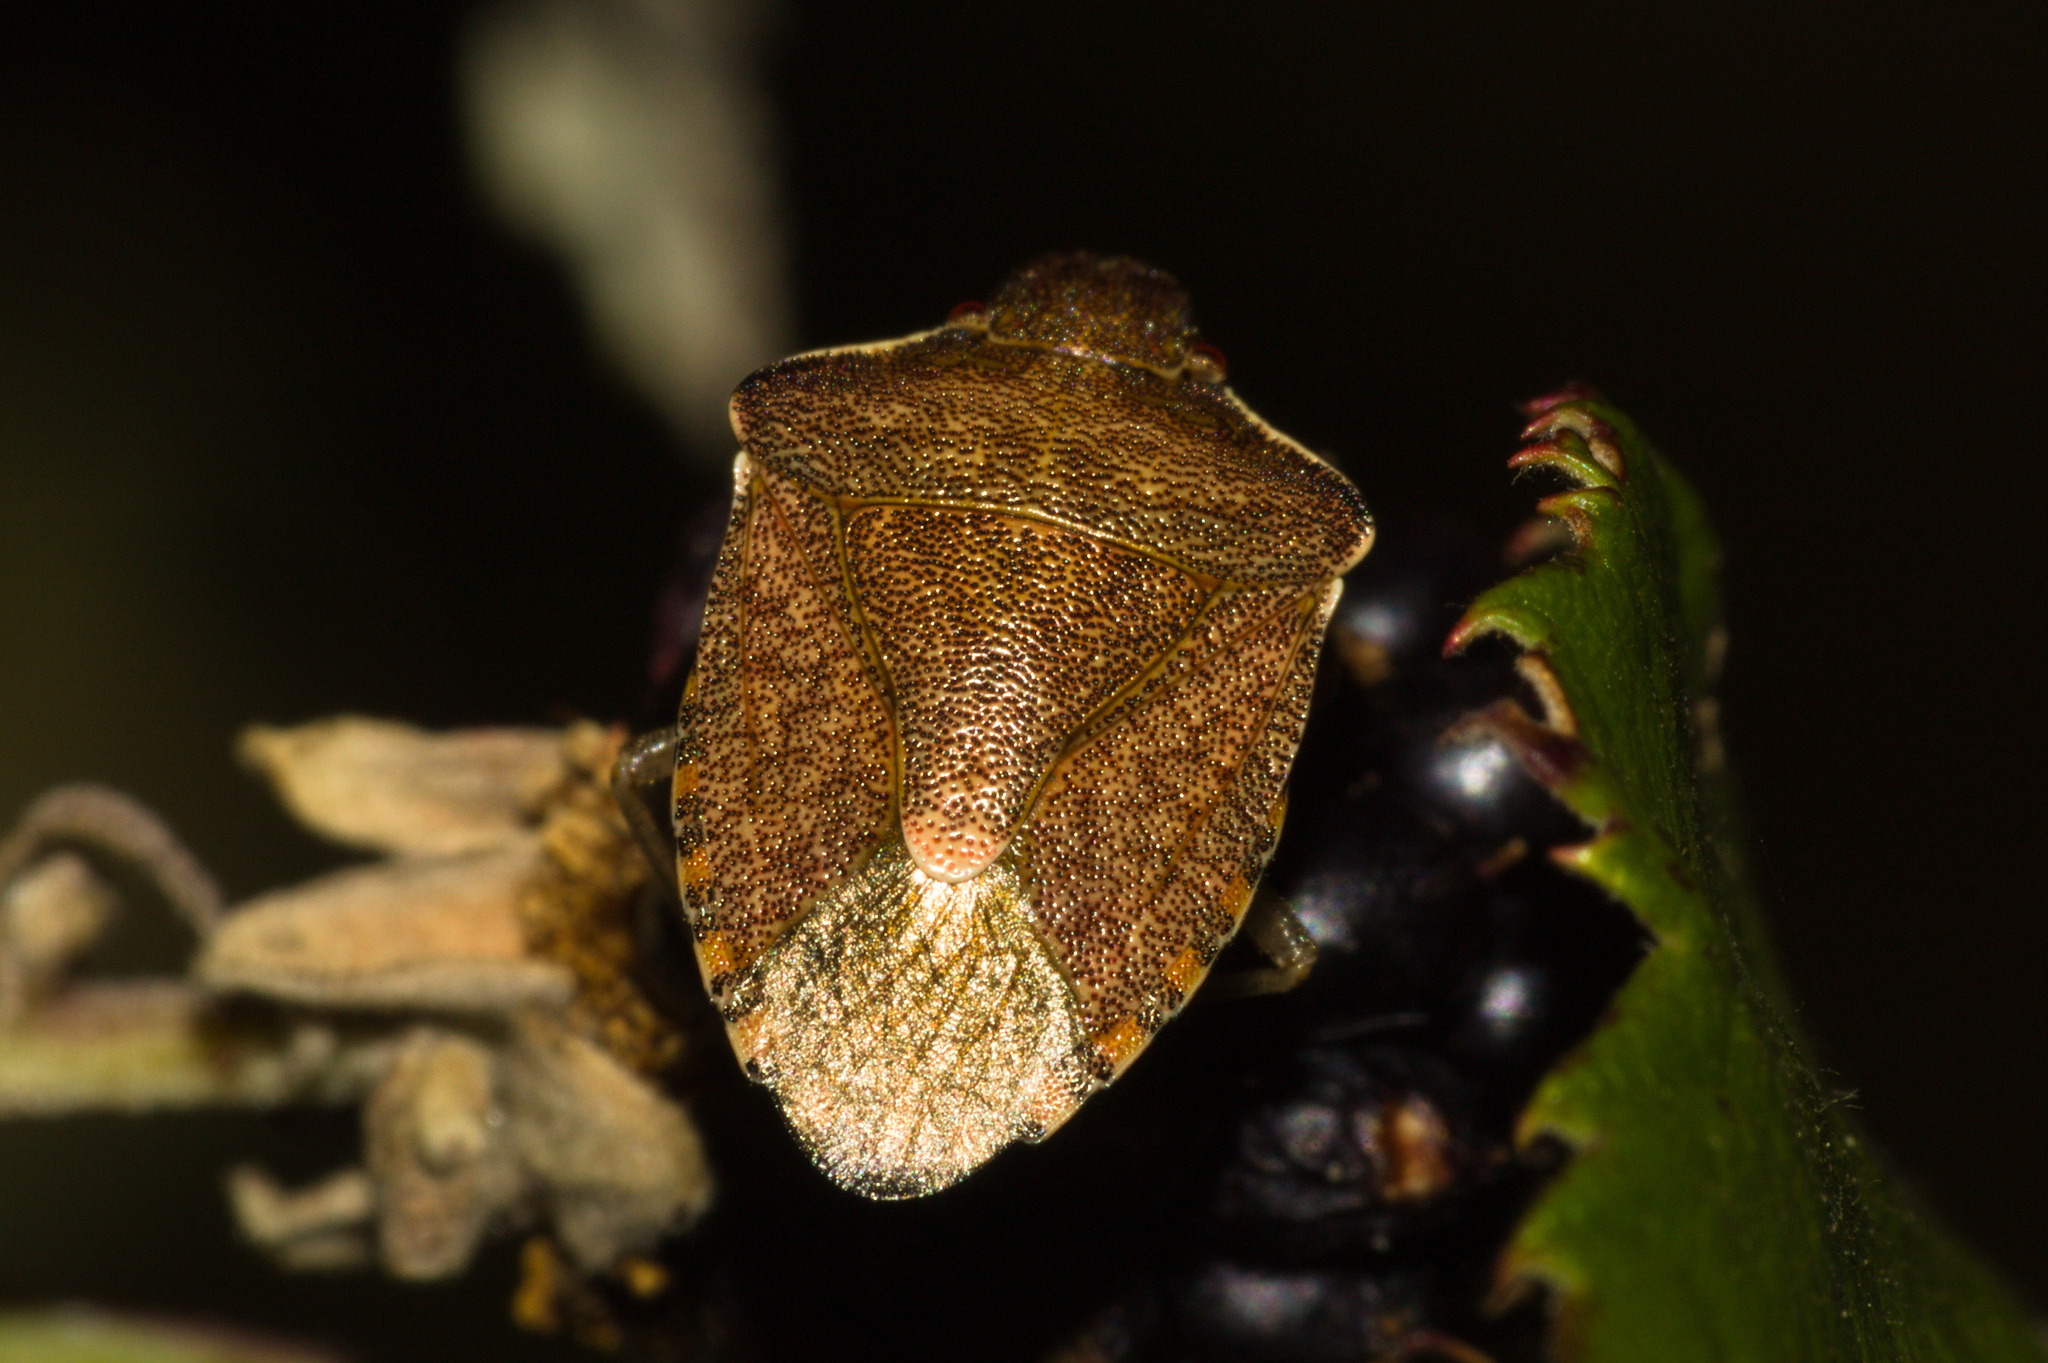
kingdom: Animalia
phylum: Arthropoda
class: Insecta
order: Hemiptera
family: Pentatomidae
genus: Holcostethus
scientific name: Holcostethus strictus
